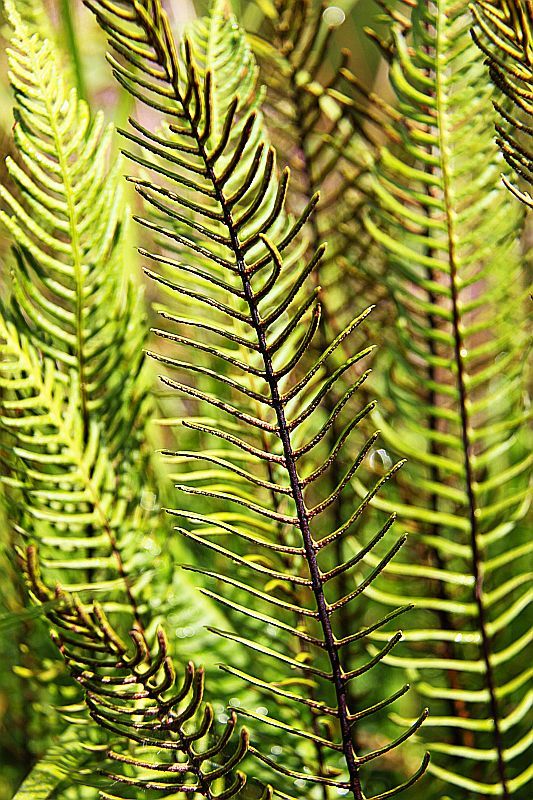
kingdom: Plantae
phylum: Tracheophyta
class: Polypodiopsida
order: Polypodiales
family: Blechnaceae
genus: Struthiopteris
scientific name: Struthiopteris spicant
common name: Deer fern
